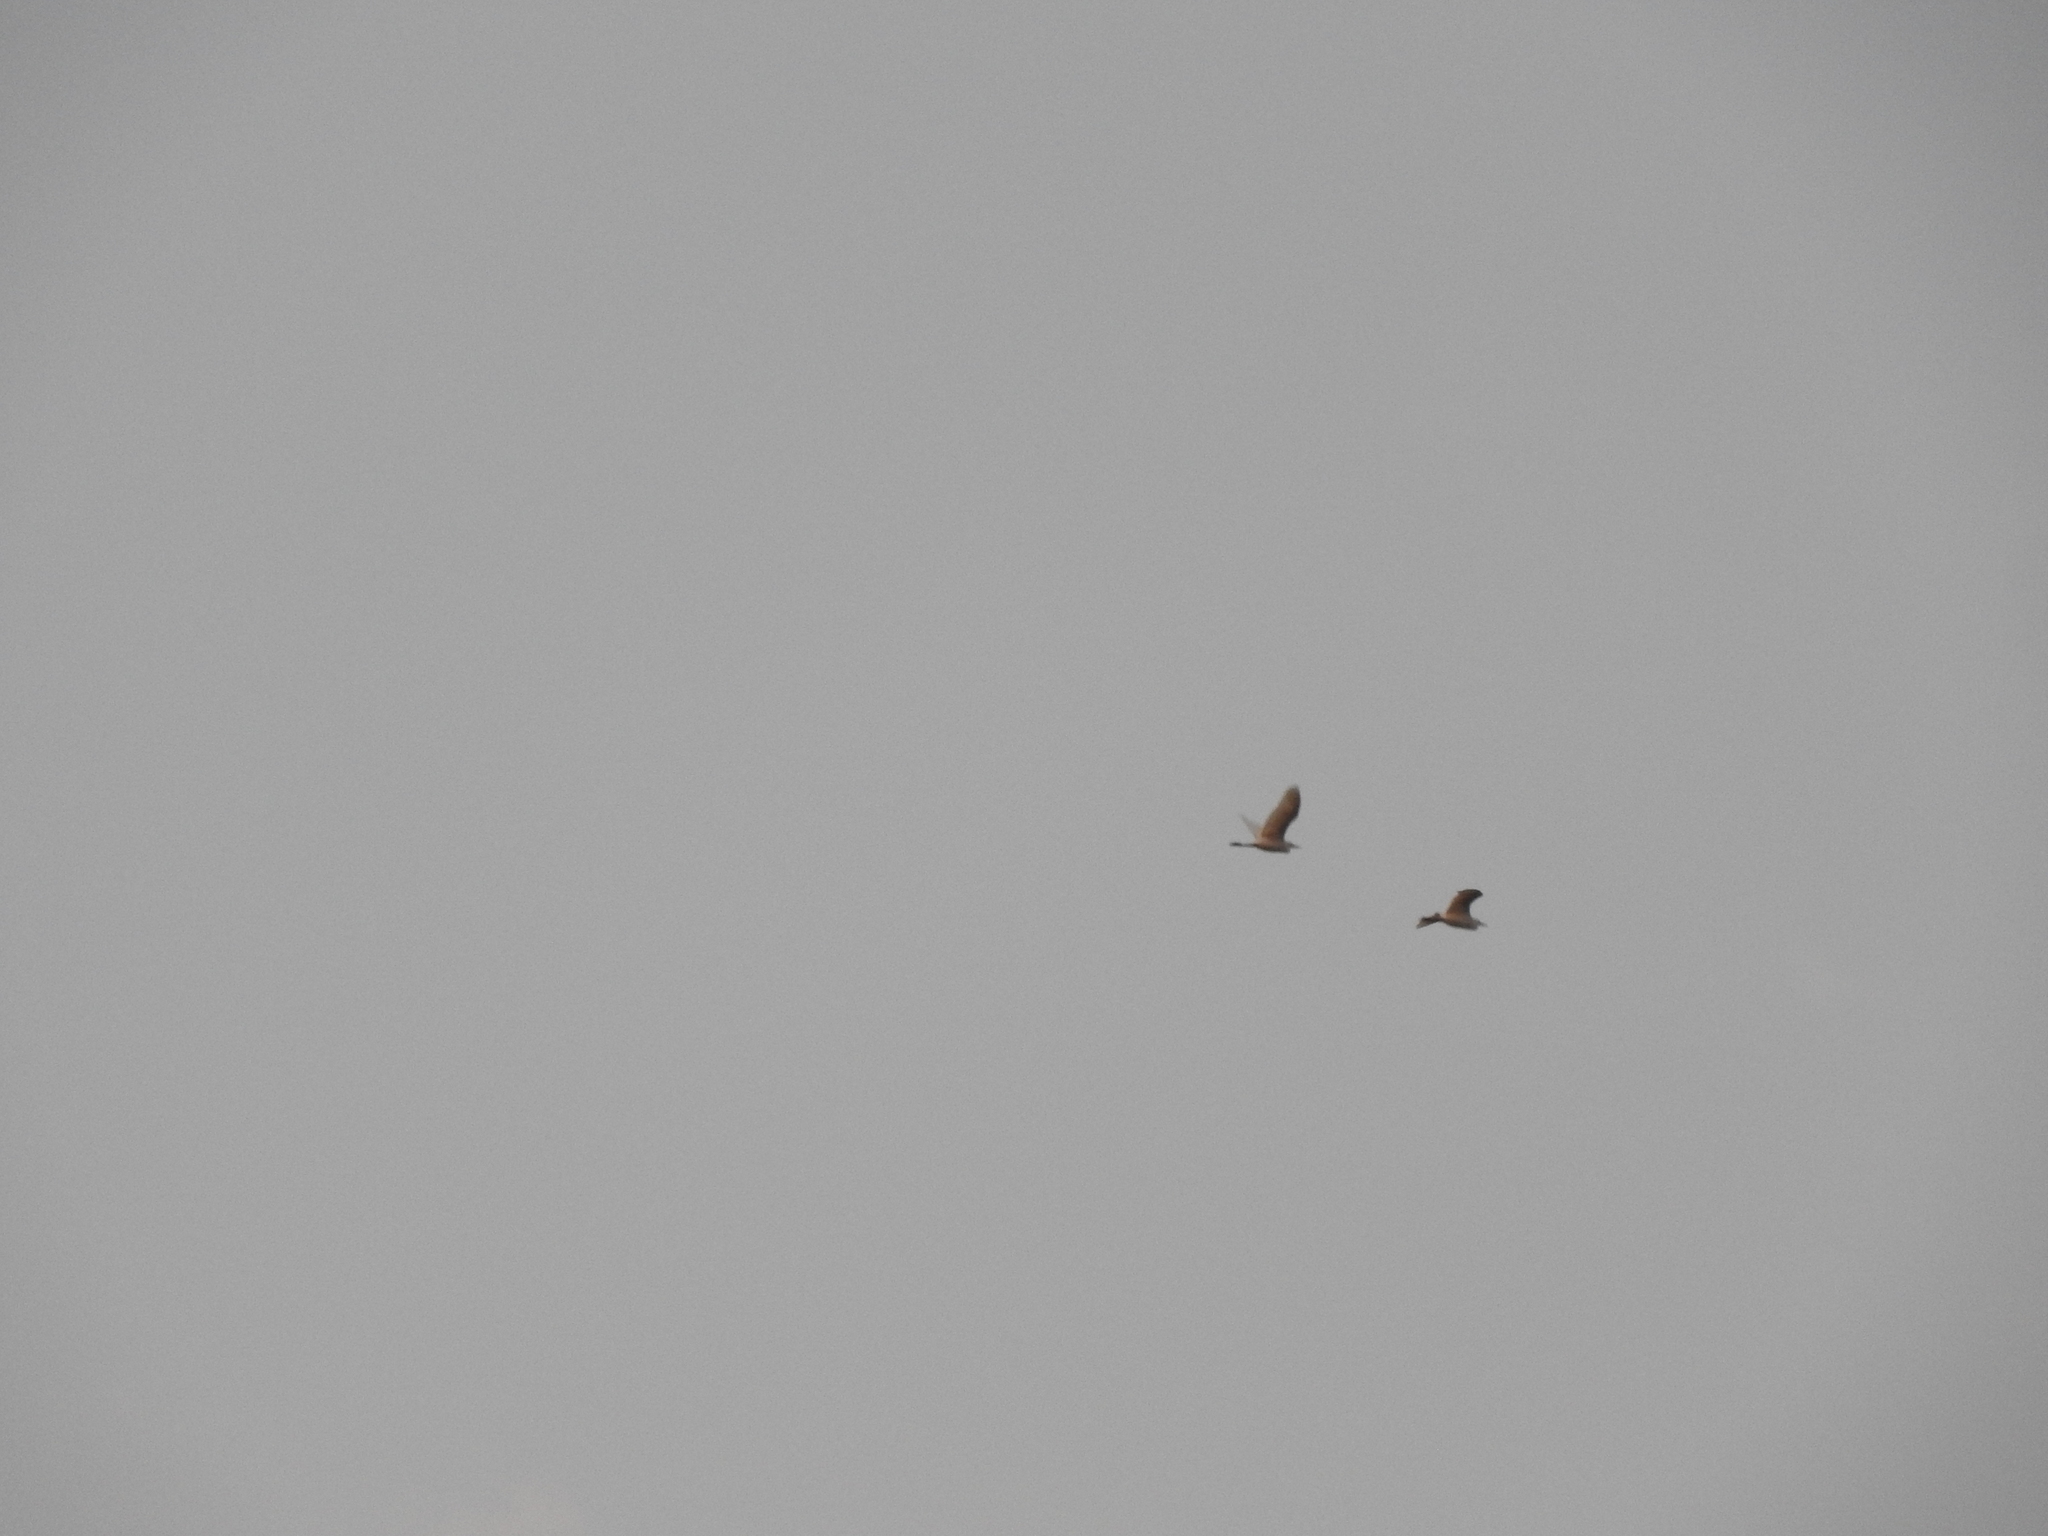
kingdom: Animalia
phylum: Chordata
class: Aves
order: Pelecaniformes
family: Ardeidae
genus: Bubulcus
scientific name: Bubulcus ibis
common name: Cattle egret
